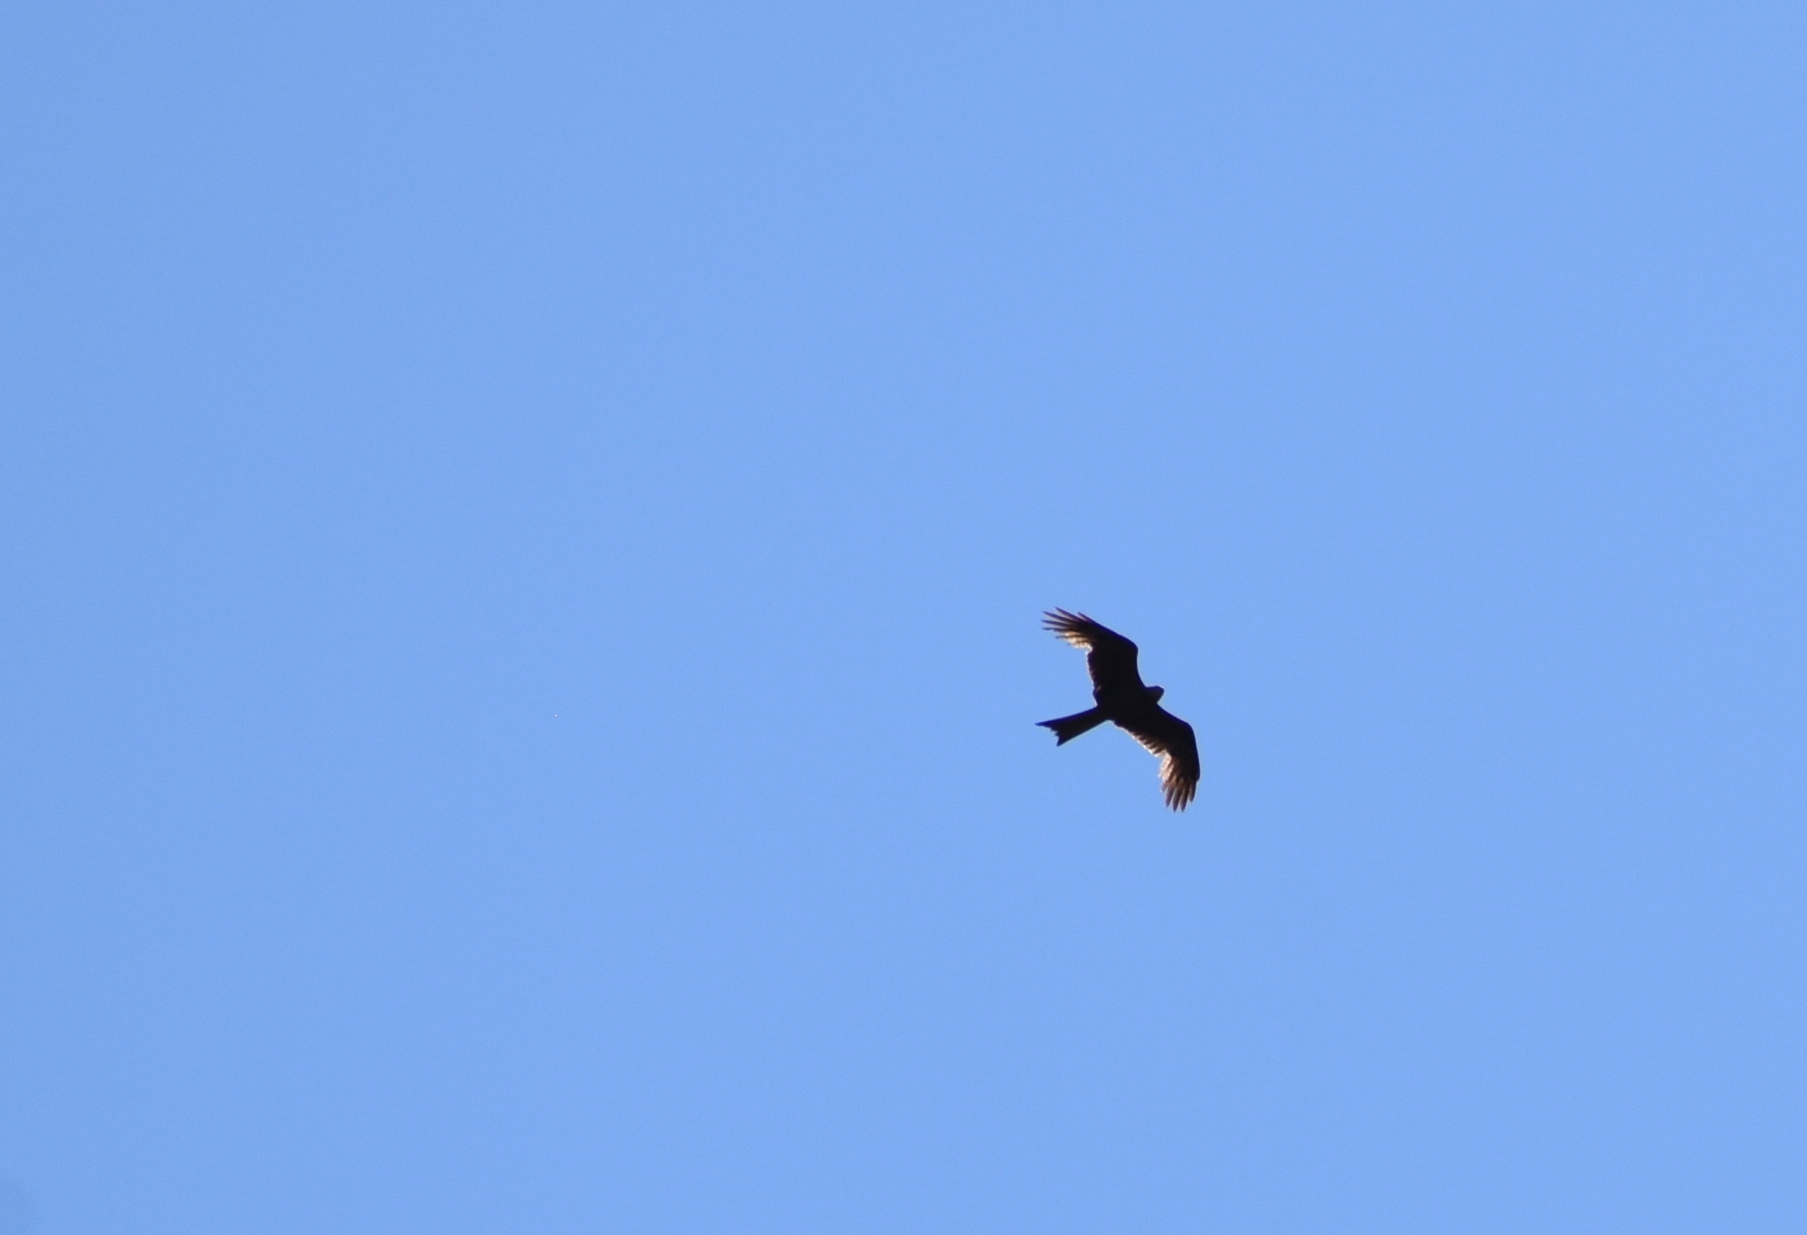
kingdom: Animalia
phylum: Chordata
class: Aves
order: Accipitriformes
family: Accipitridae
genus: Milvus
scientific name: Milvus migrans
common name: Black kite
